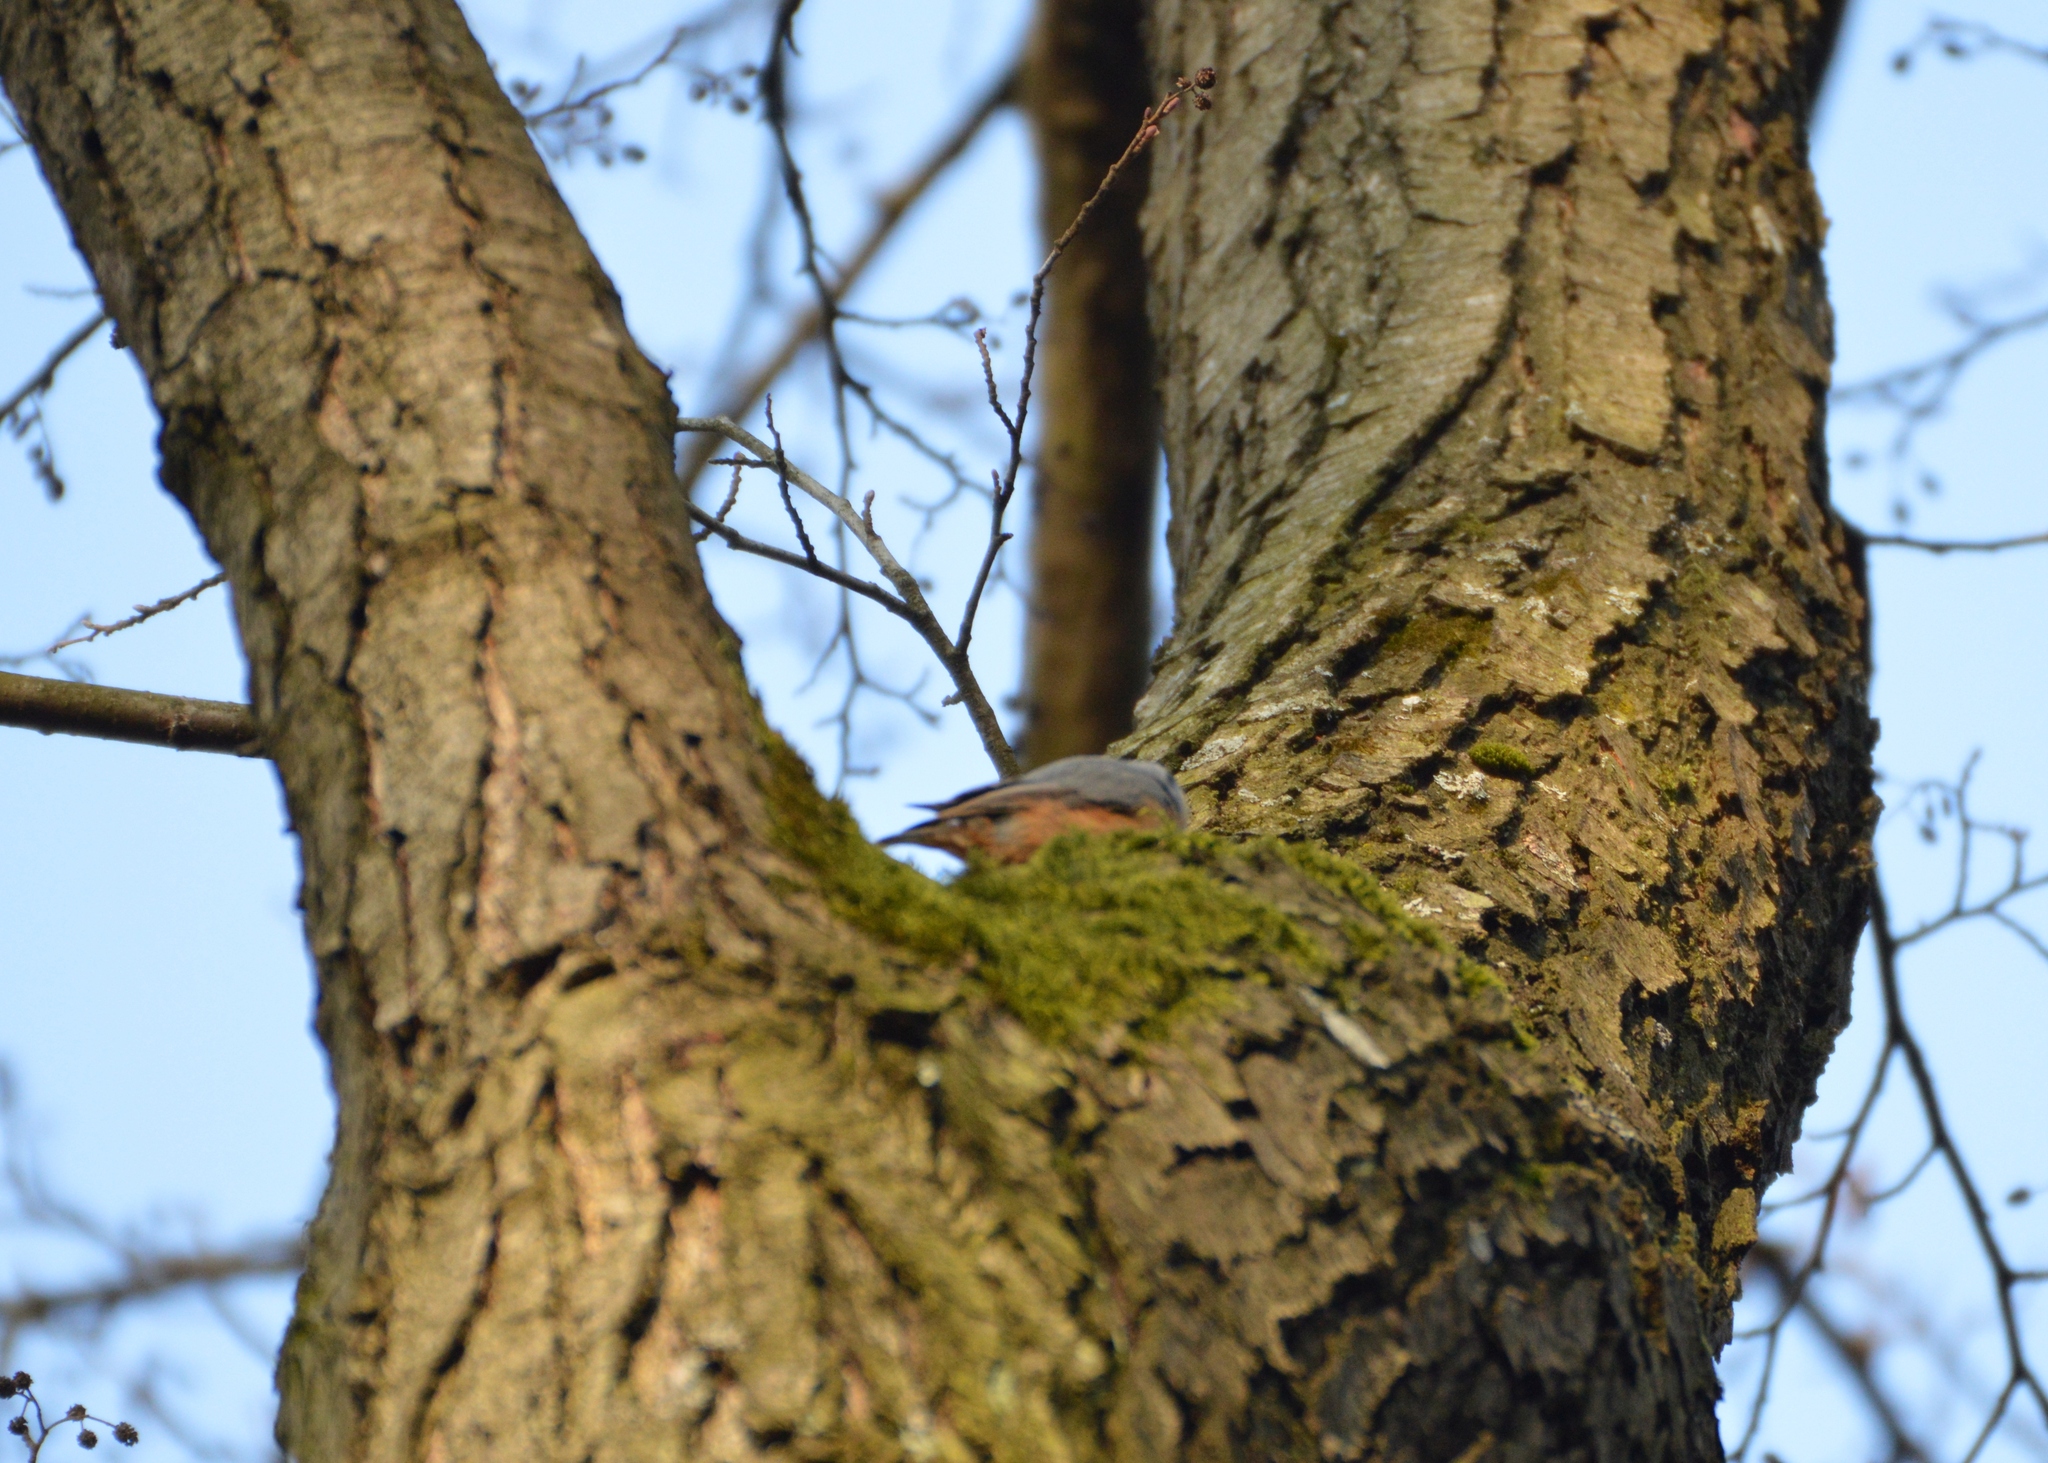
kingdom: Animalia
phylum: Chordata
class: Aves
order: Passeriformes
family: Sittidae
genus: Sitta
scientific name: Sitta europaea
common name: Eurasian nuthatch
